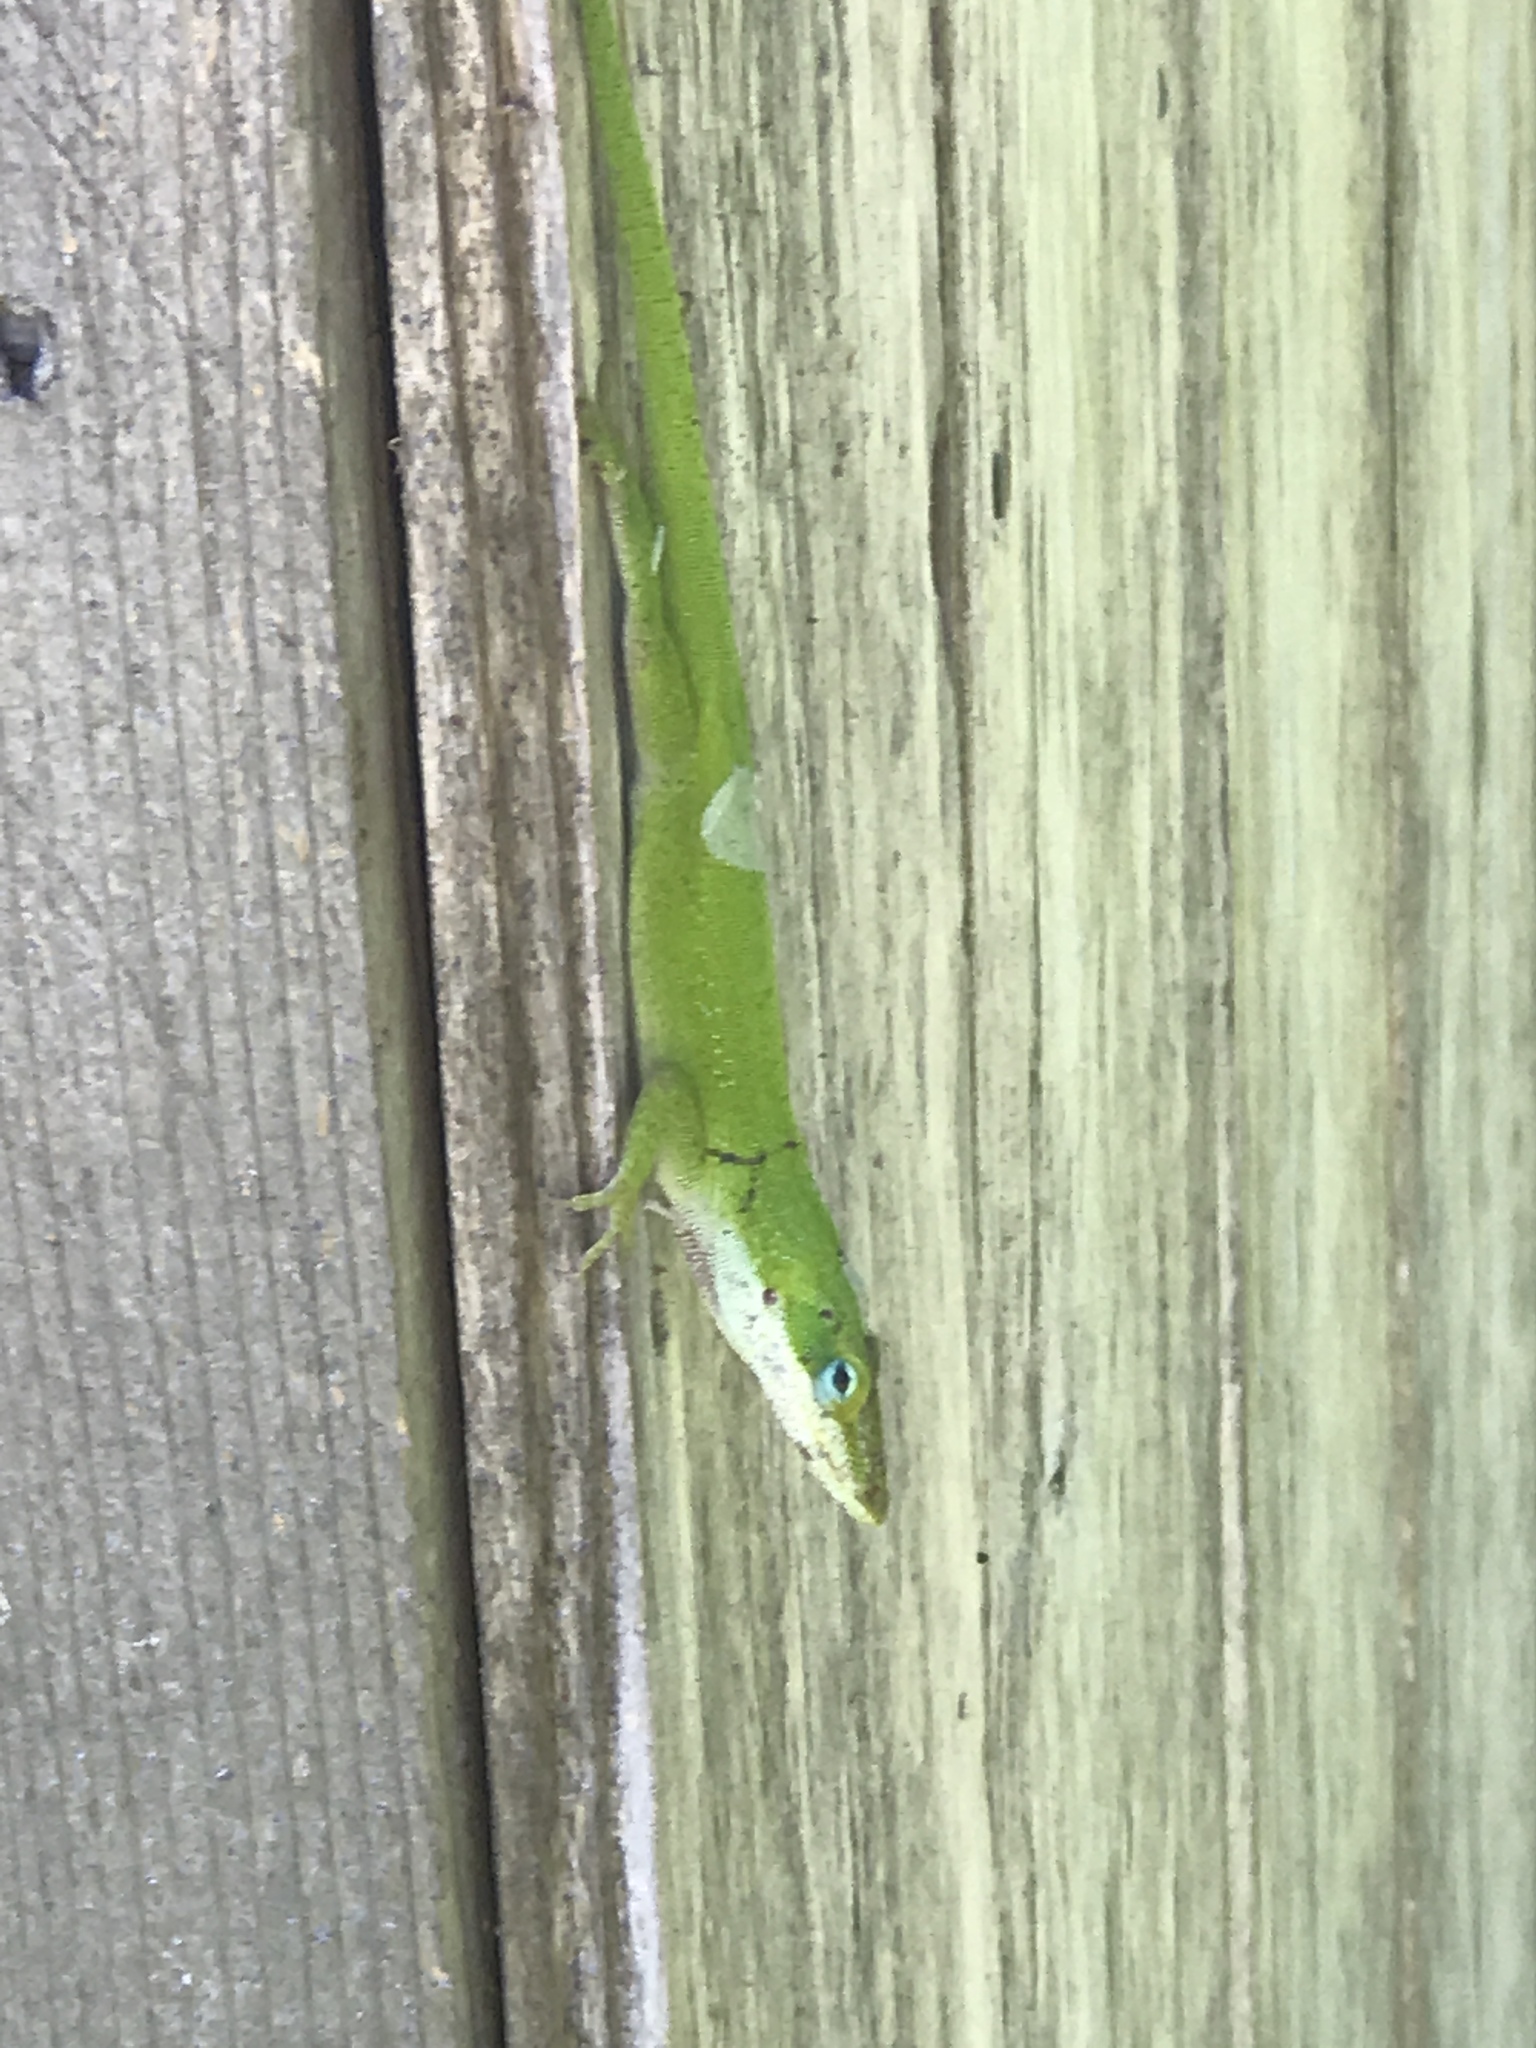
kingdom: Animalia
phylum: Chordata
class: Squamata
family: Dactyloidae
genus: Anolis
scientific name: Anolis carolinensis
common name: Green anole
